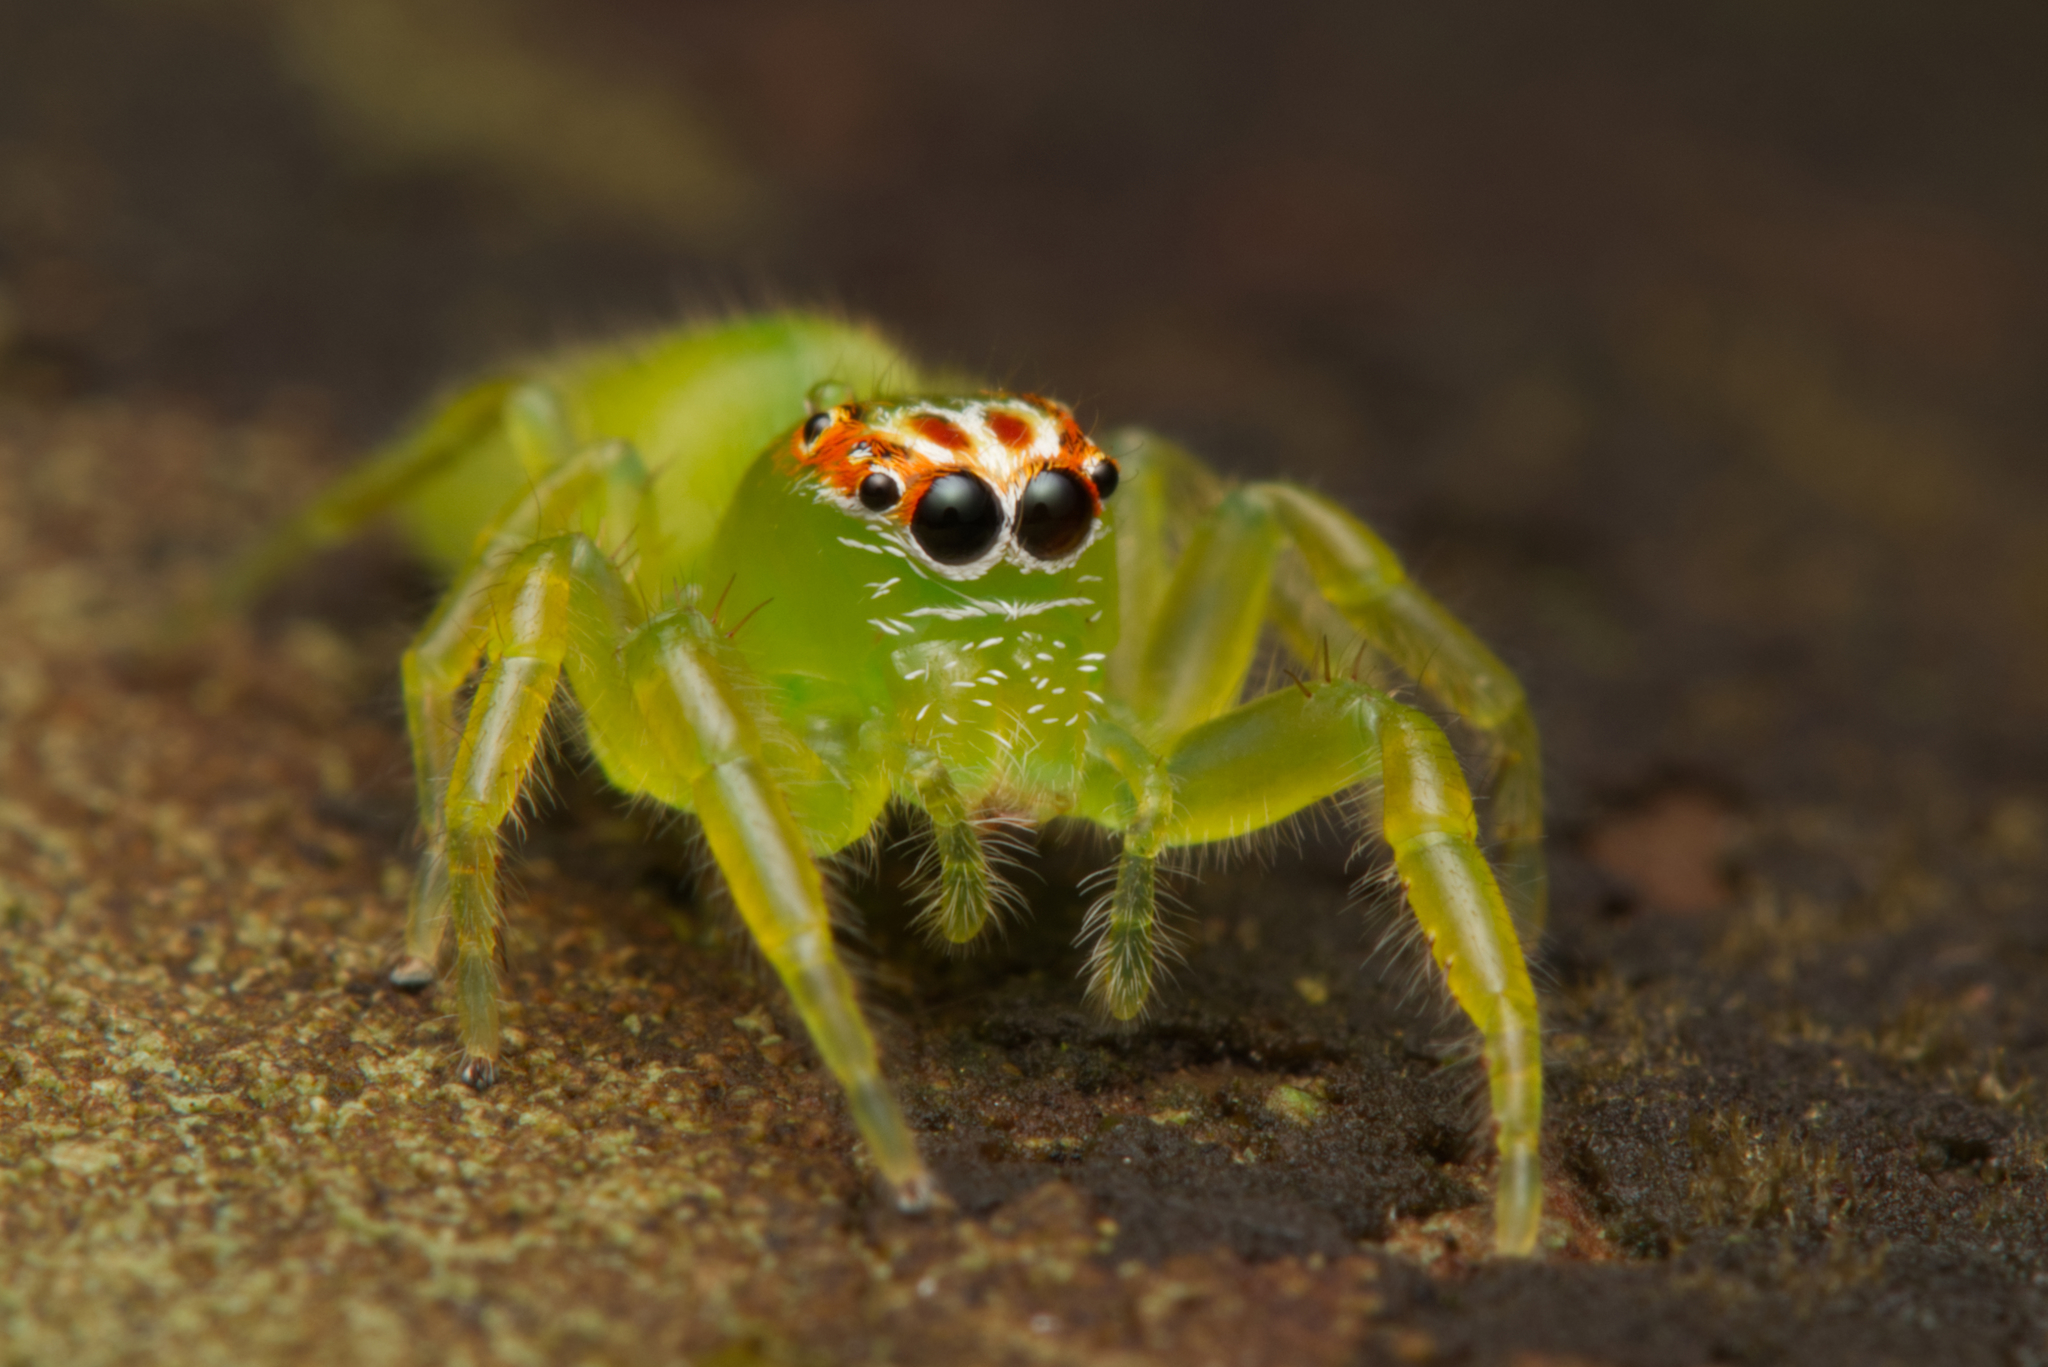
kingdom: Animalia
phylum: Arthropoda
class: Arachnida
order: Araneae
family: Salticidae
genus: Mopsus
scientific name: Mopsus mormon
